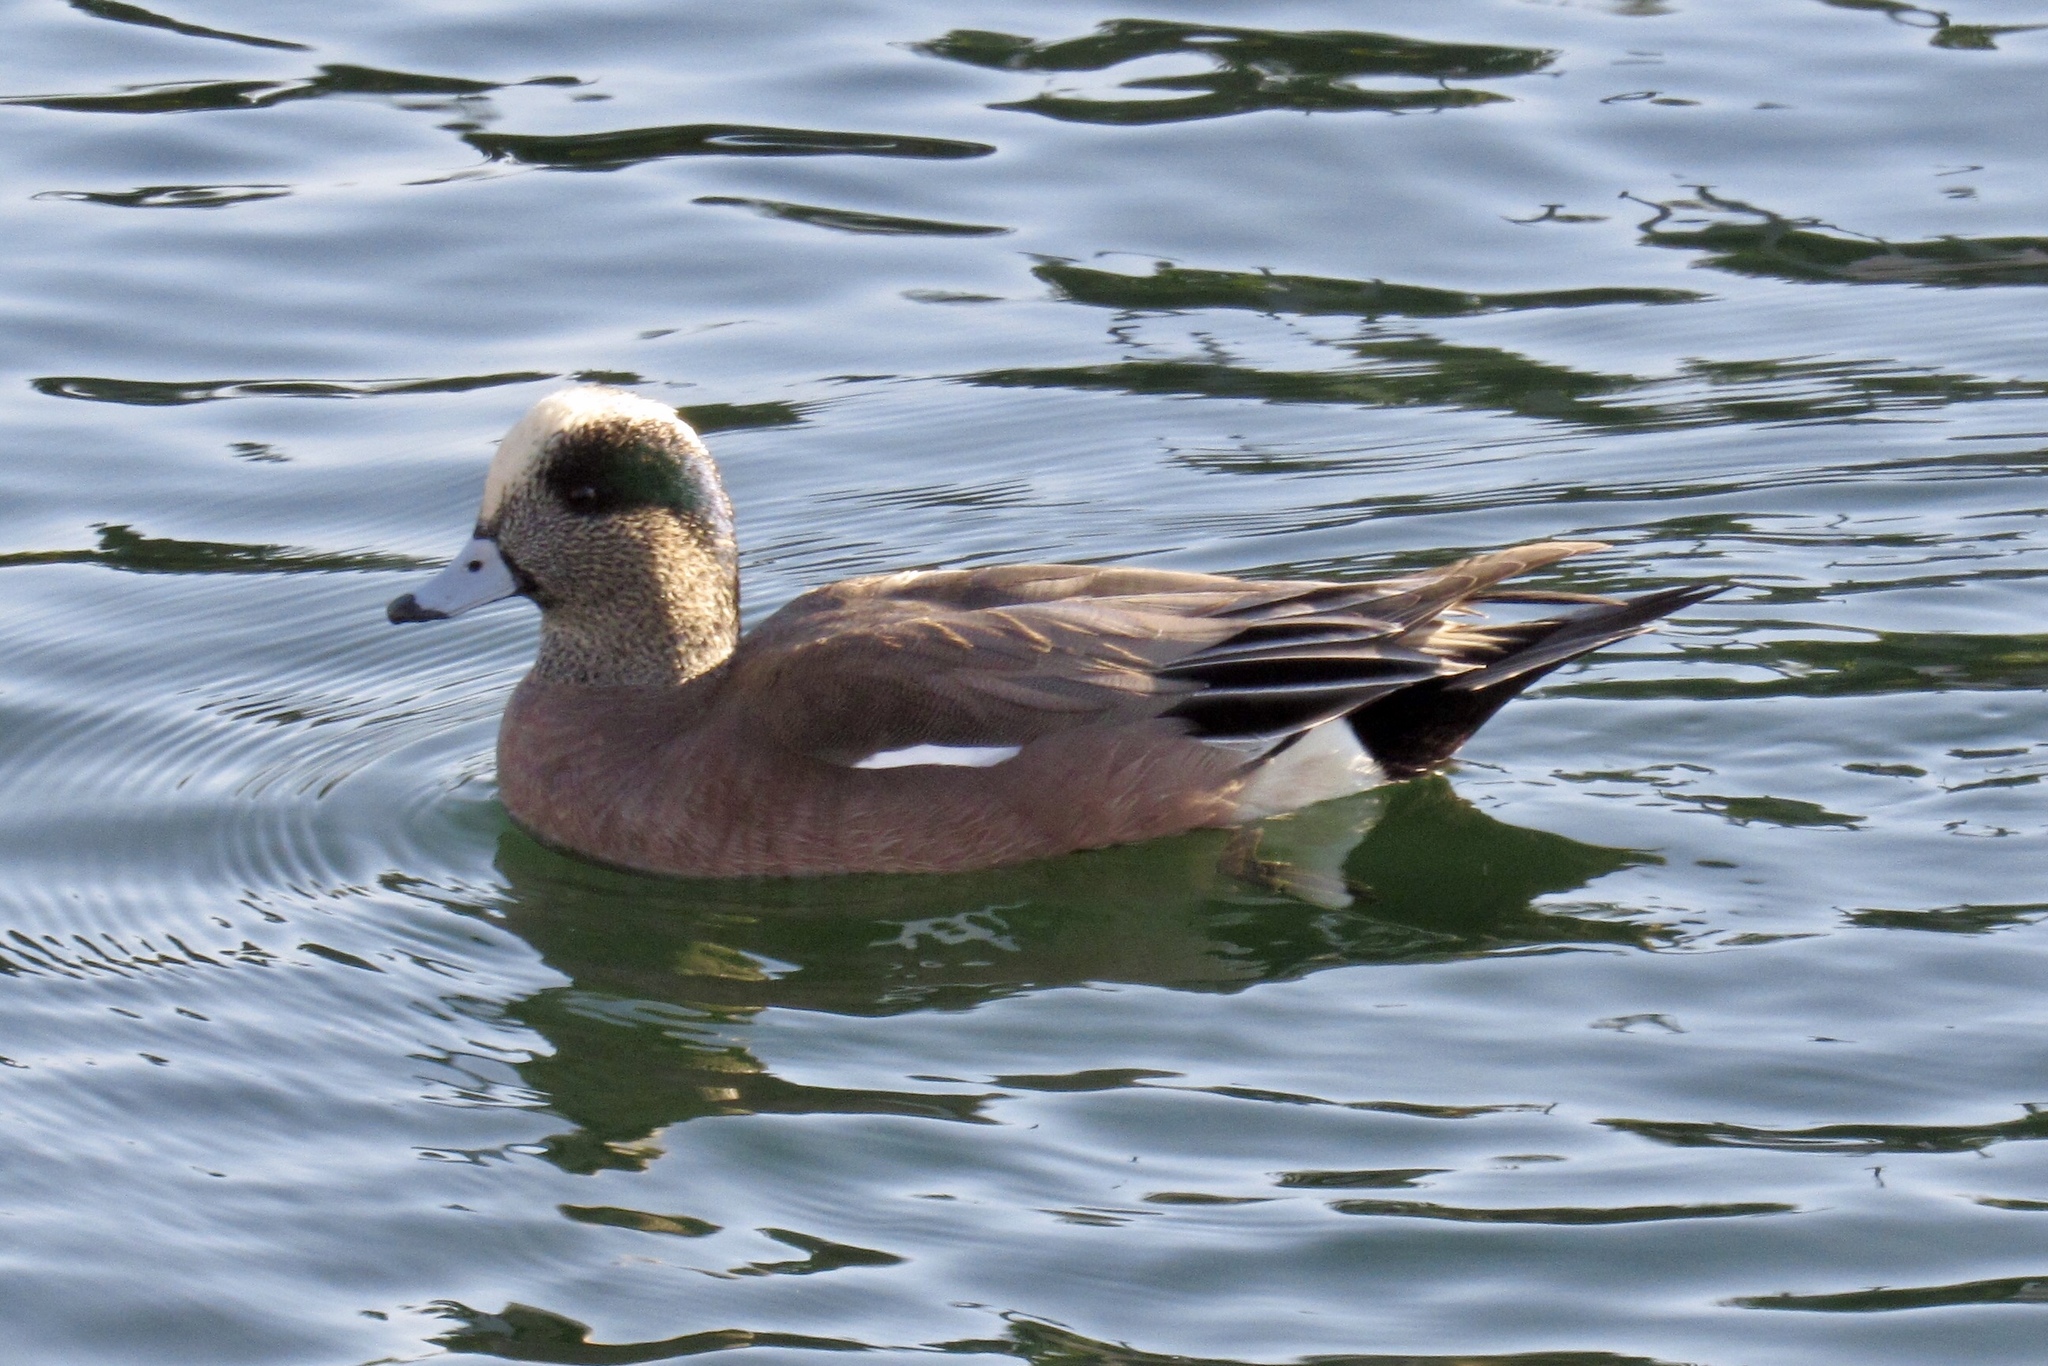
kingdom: Animalia
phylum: Chordata
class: Aves
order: Anseriformes
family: Anatidae
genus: Mareca
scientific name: Mareca americana
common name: American wigeon
